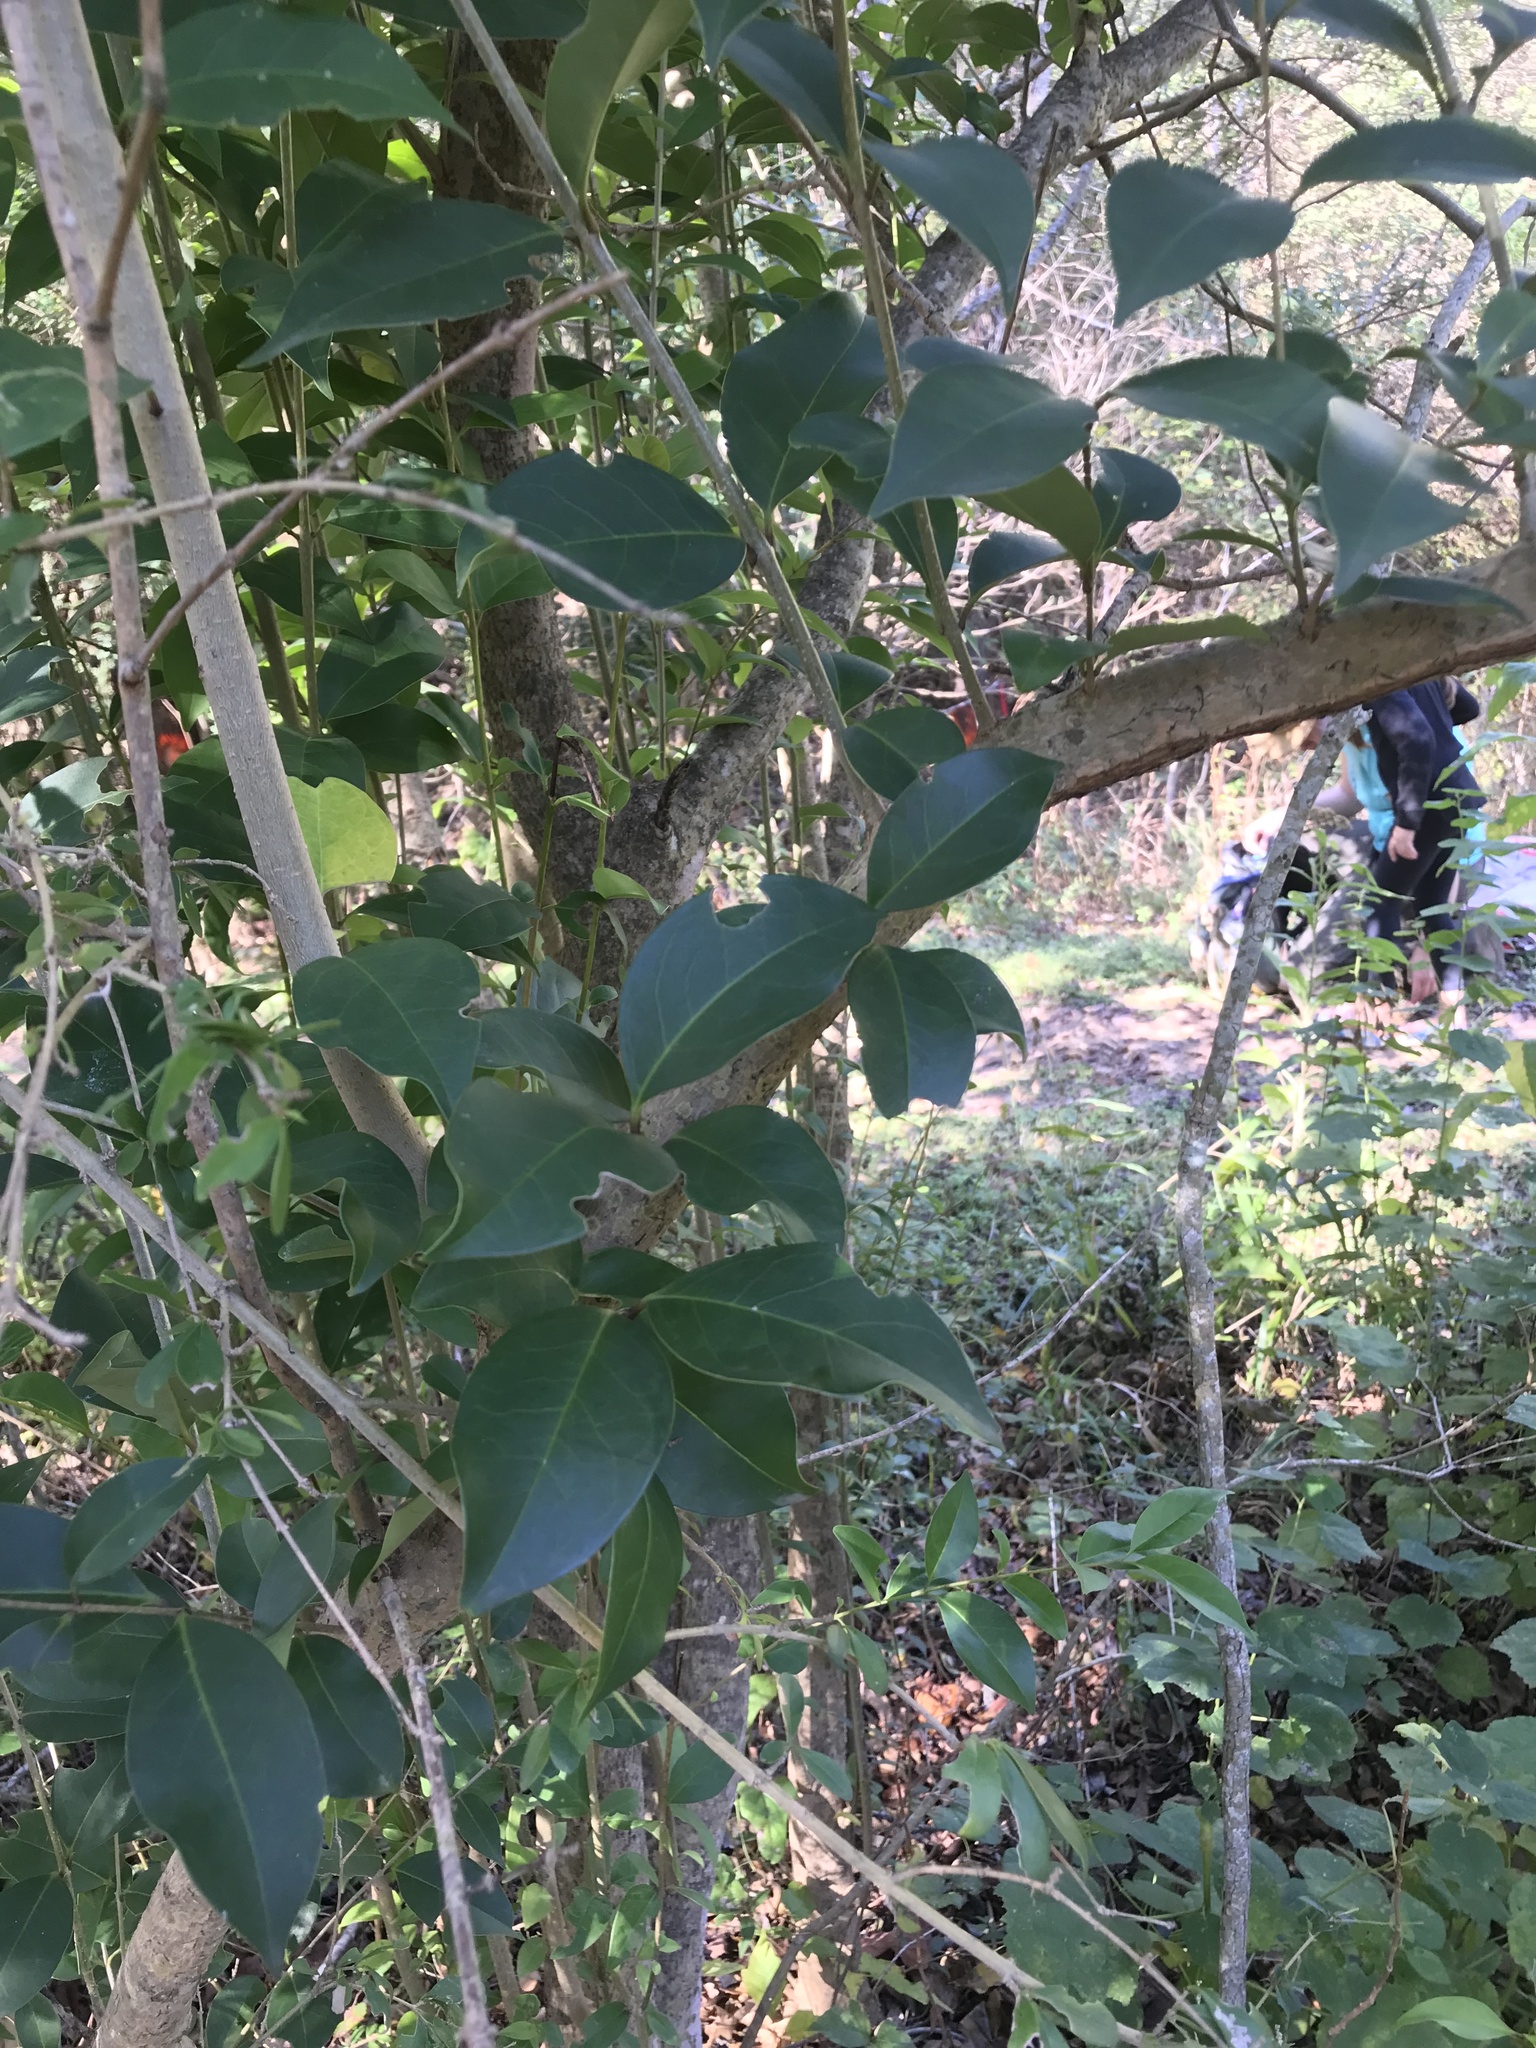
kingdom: Plantae
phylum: Tracheophyta
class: Magnoliopsida
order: Lamiales
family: Oleaceae
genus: Ligustrum
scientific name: Ligustrum lucidum
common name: Glossy privet
